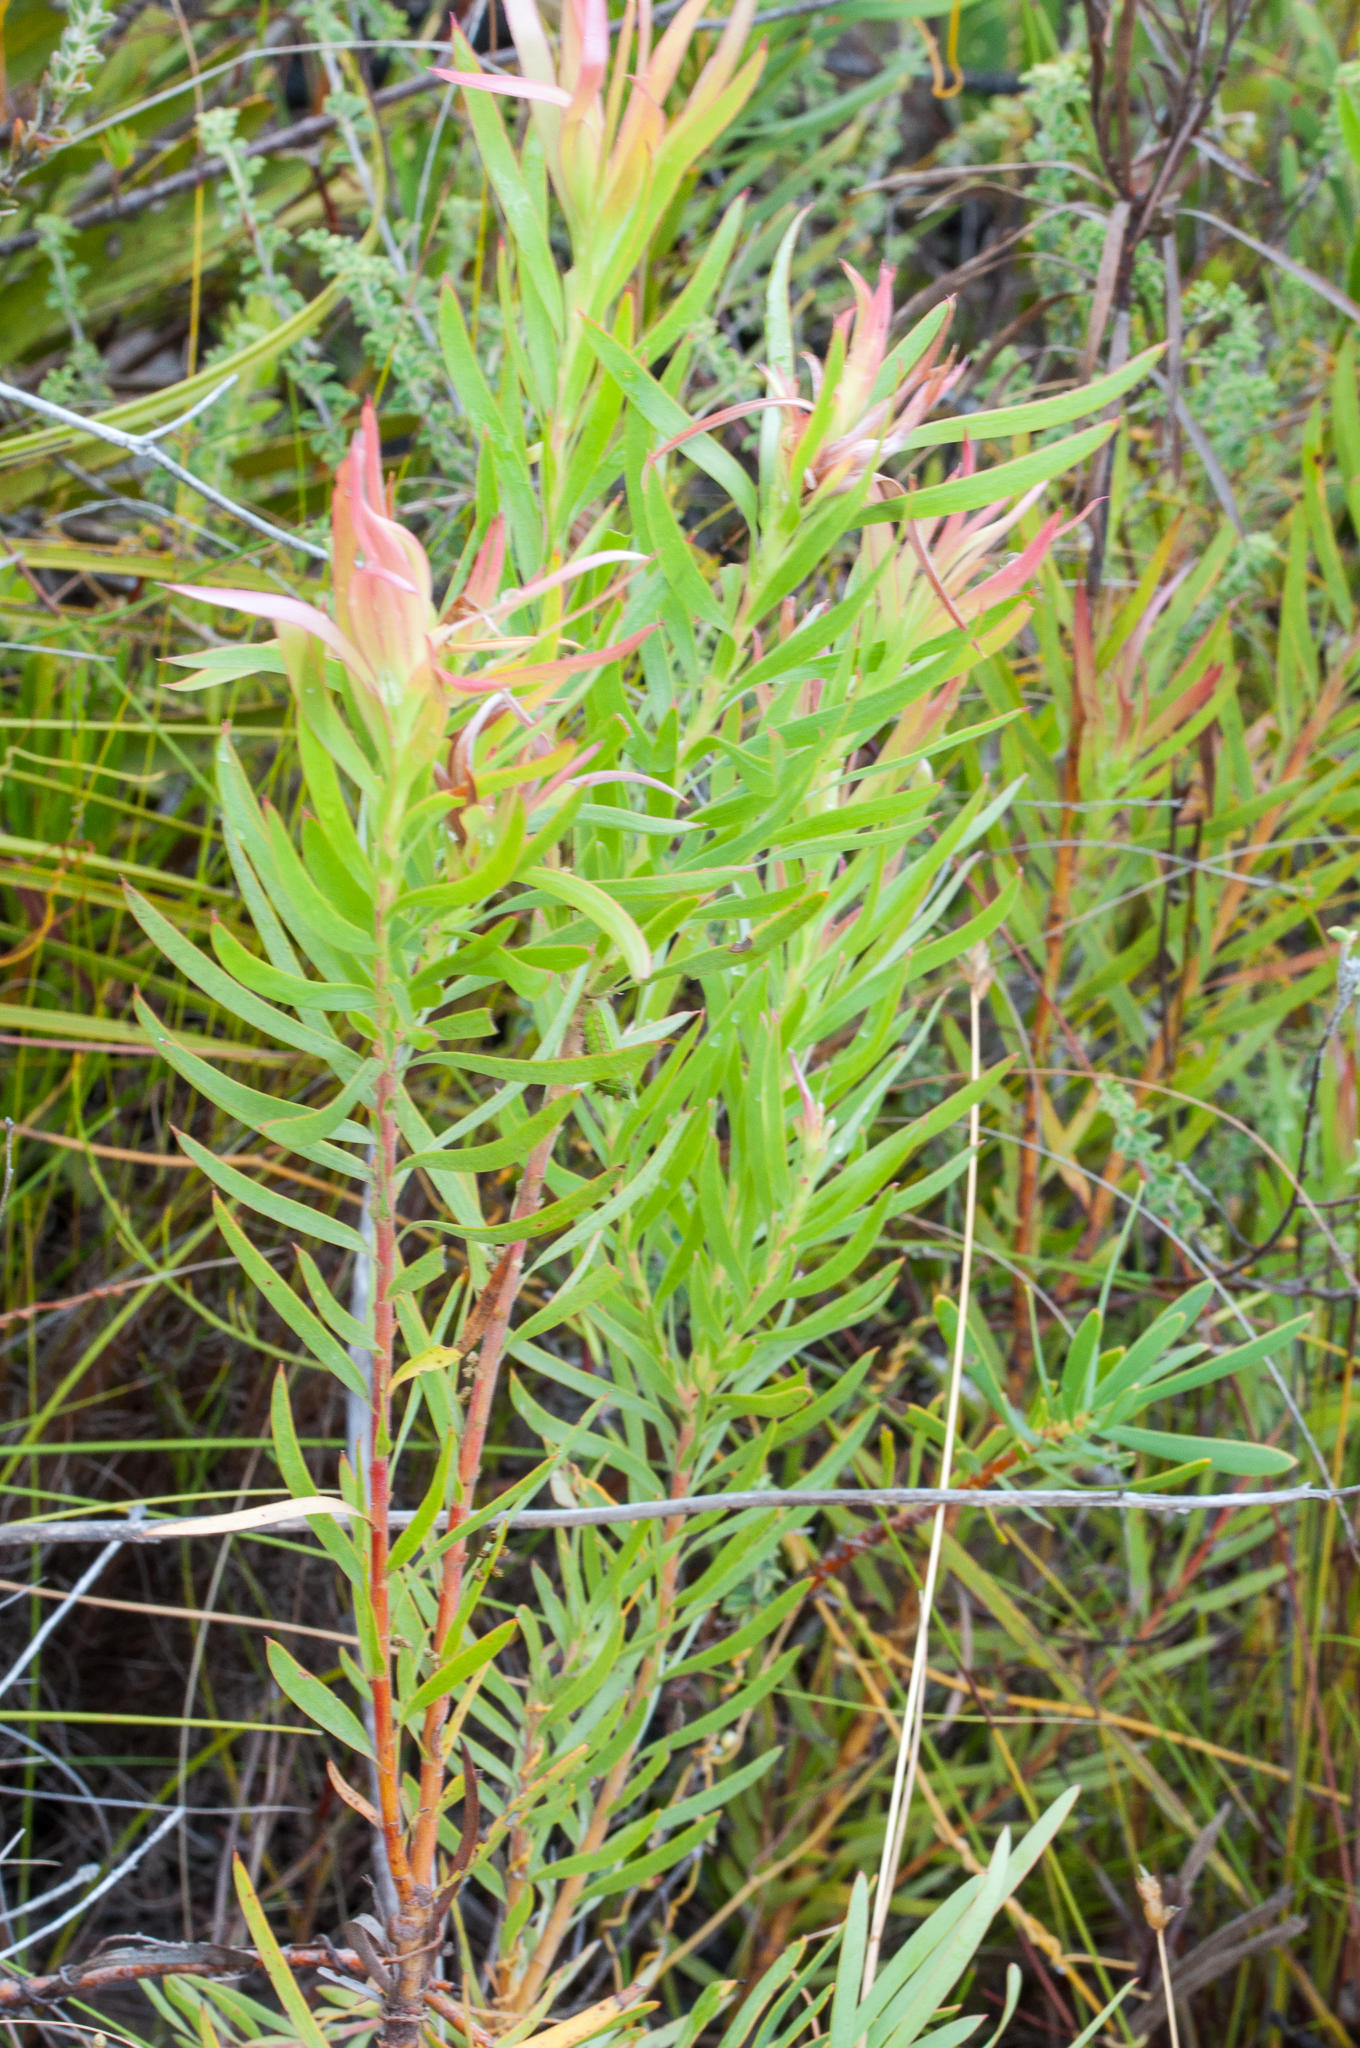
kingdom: Plantae
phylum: Tracheophyta
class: Magnoliopsida
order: Proteales
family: Proteaceae
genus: Leucadendron
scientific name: Leucadendron xanthoconus
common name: Sickle-leaf conebush
